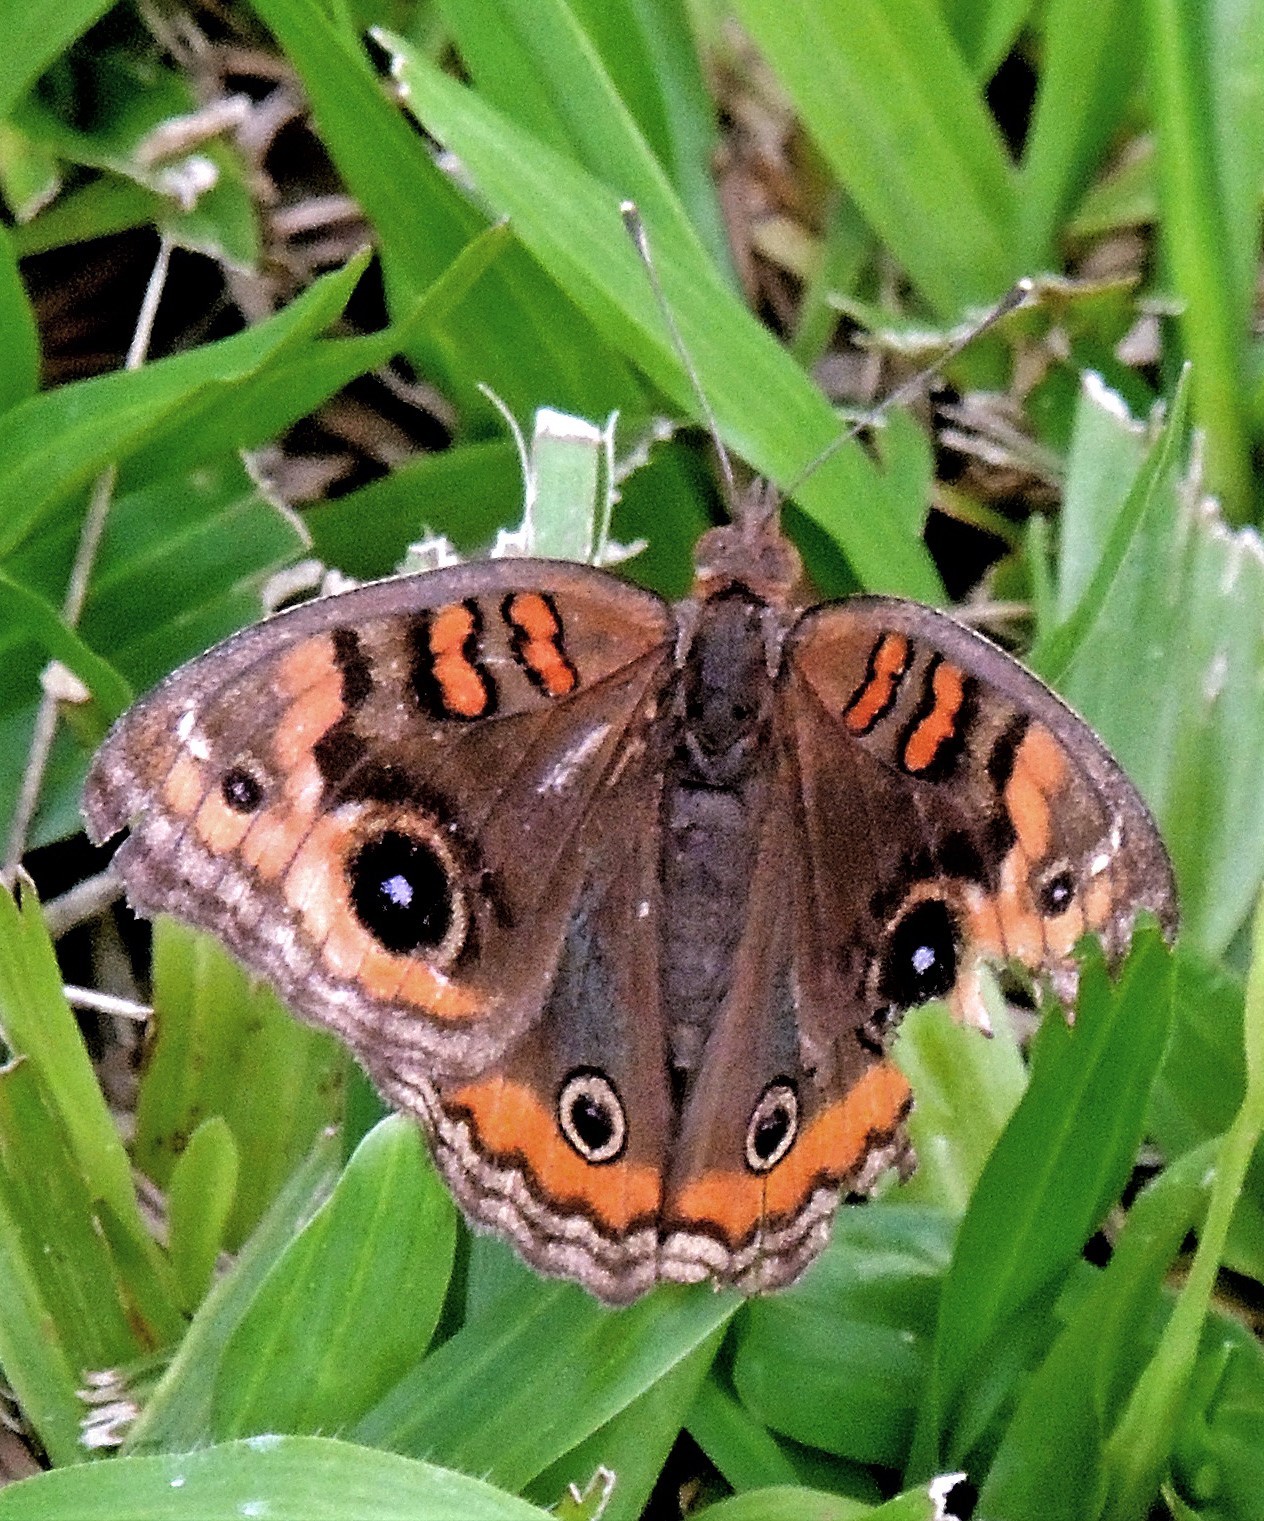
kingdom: Animalia
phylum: Arthropoda
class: Insecta
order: Lepidoptera
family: Nymphalidae
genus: Junonia
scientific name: Junonia lavinia
